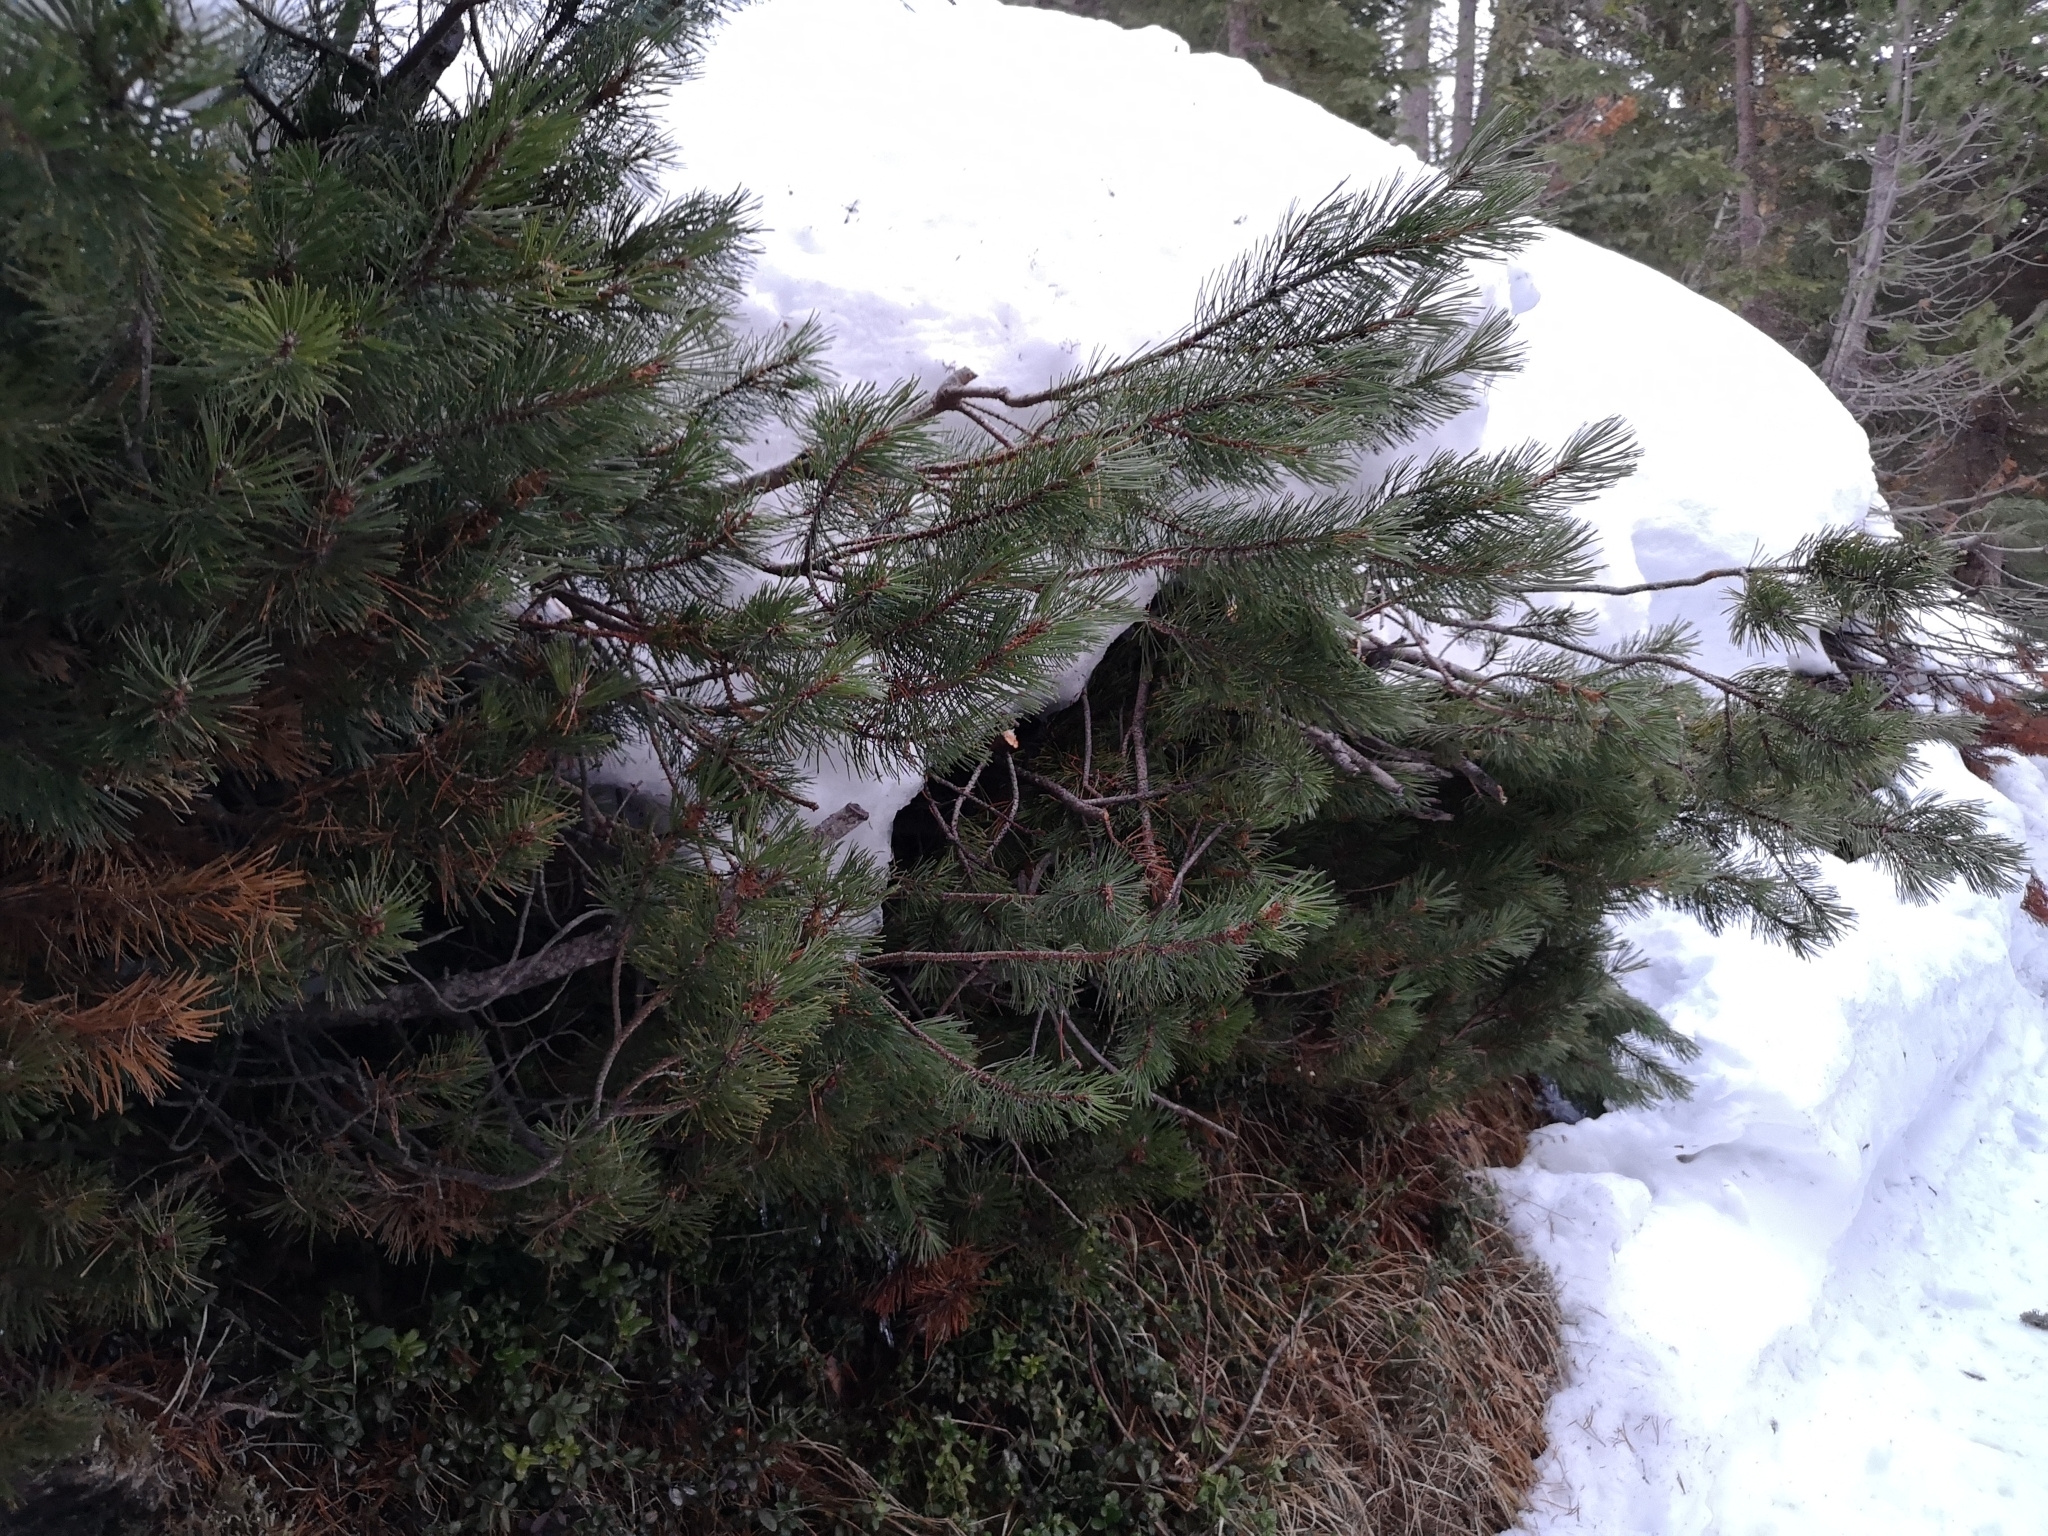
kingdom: Plantae
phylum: Tracheophyta
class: Pinopsida
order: Pinales
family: Pinaceae
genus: Pinus
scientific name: Pinus mugo
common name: Mugo pine
